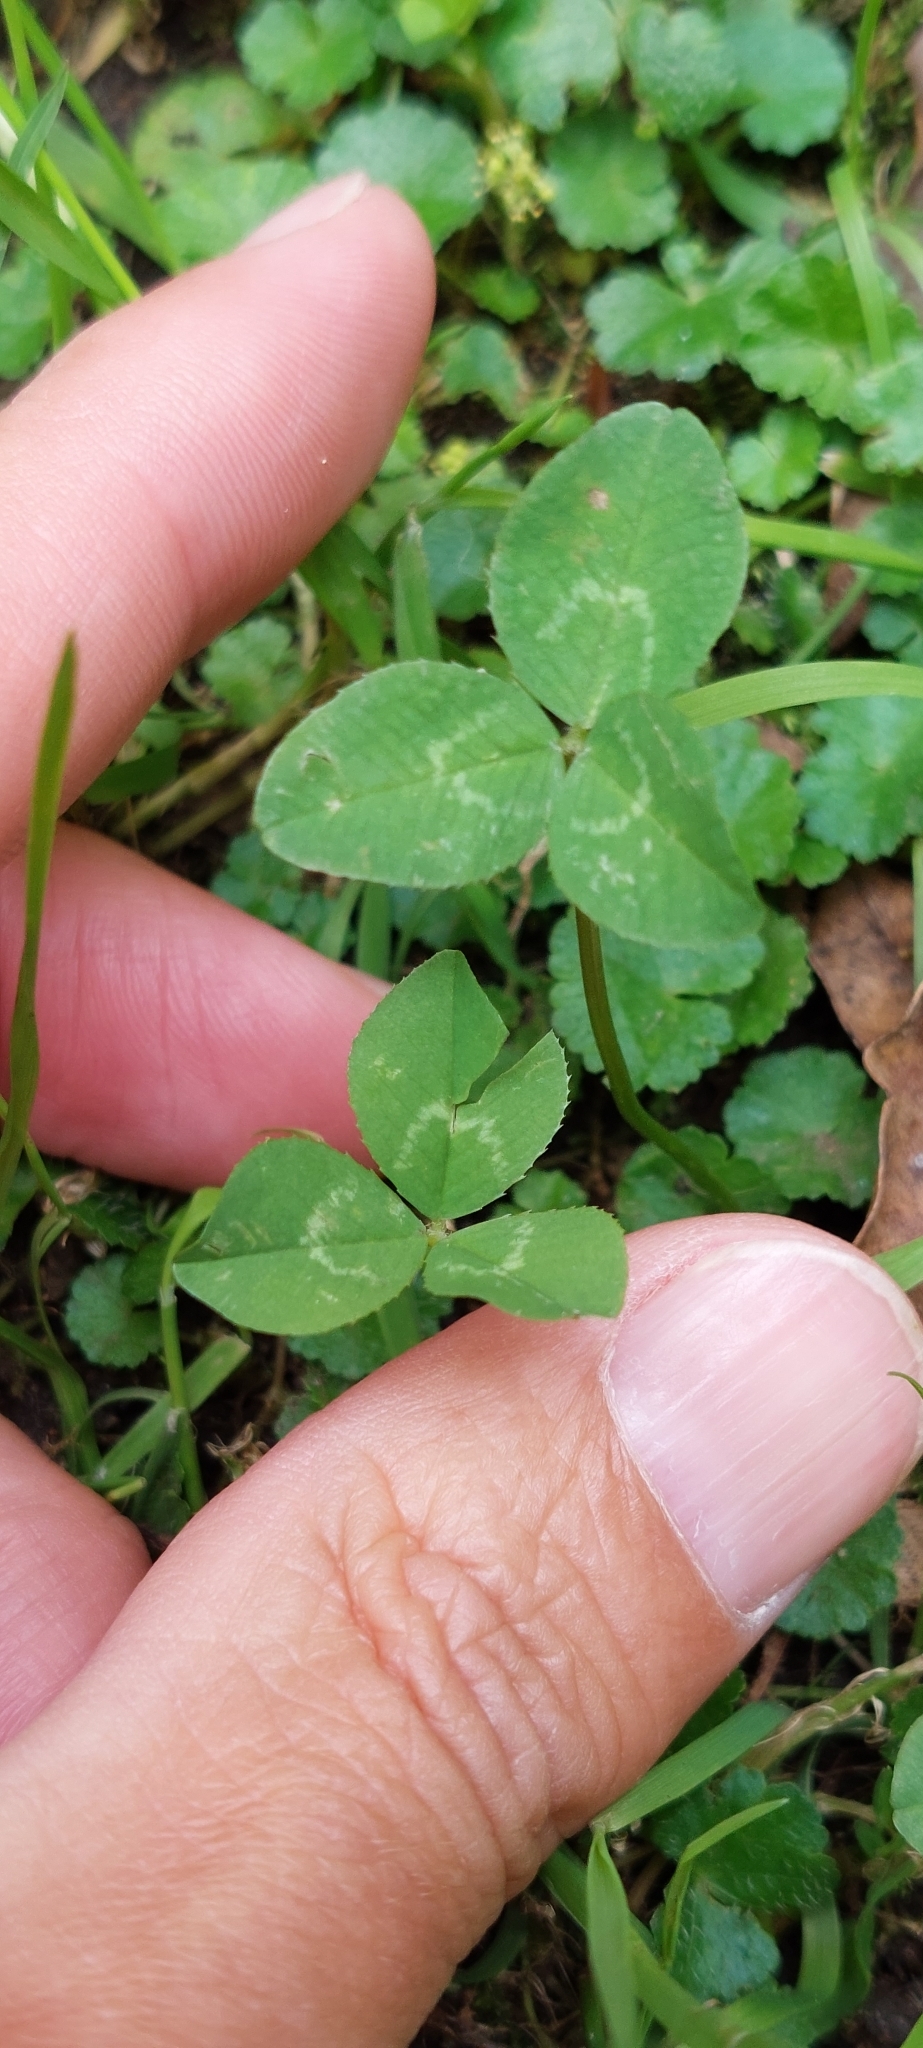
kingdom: Plantae
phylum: Tracheophyta
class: Magnoliopsida
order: Fabales
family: Fabaceae
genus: Trifolium
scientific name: Trifolium repens
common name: White clover
